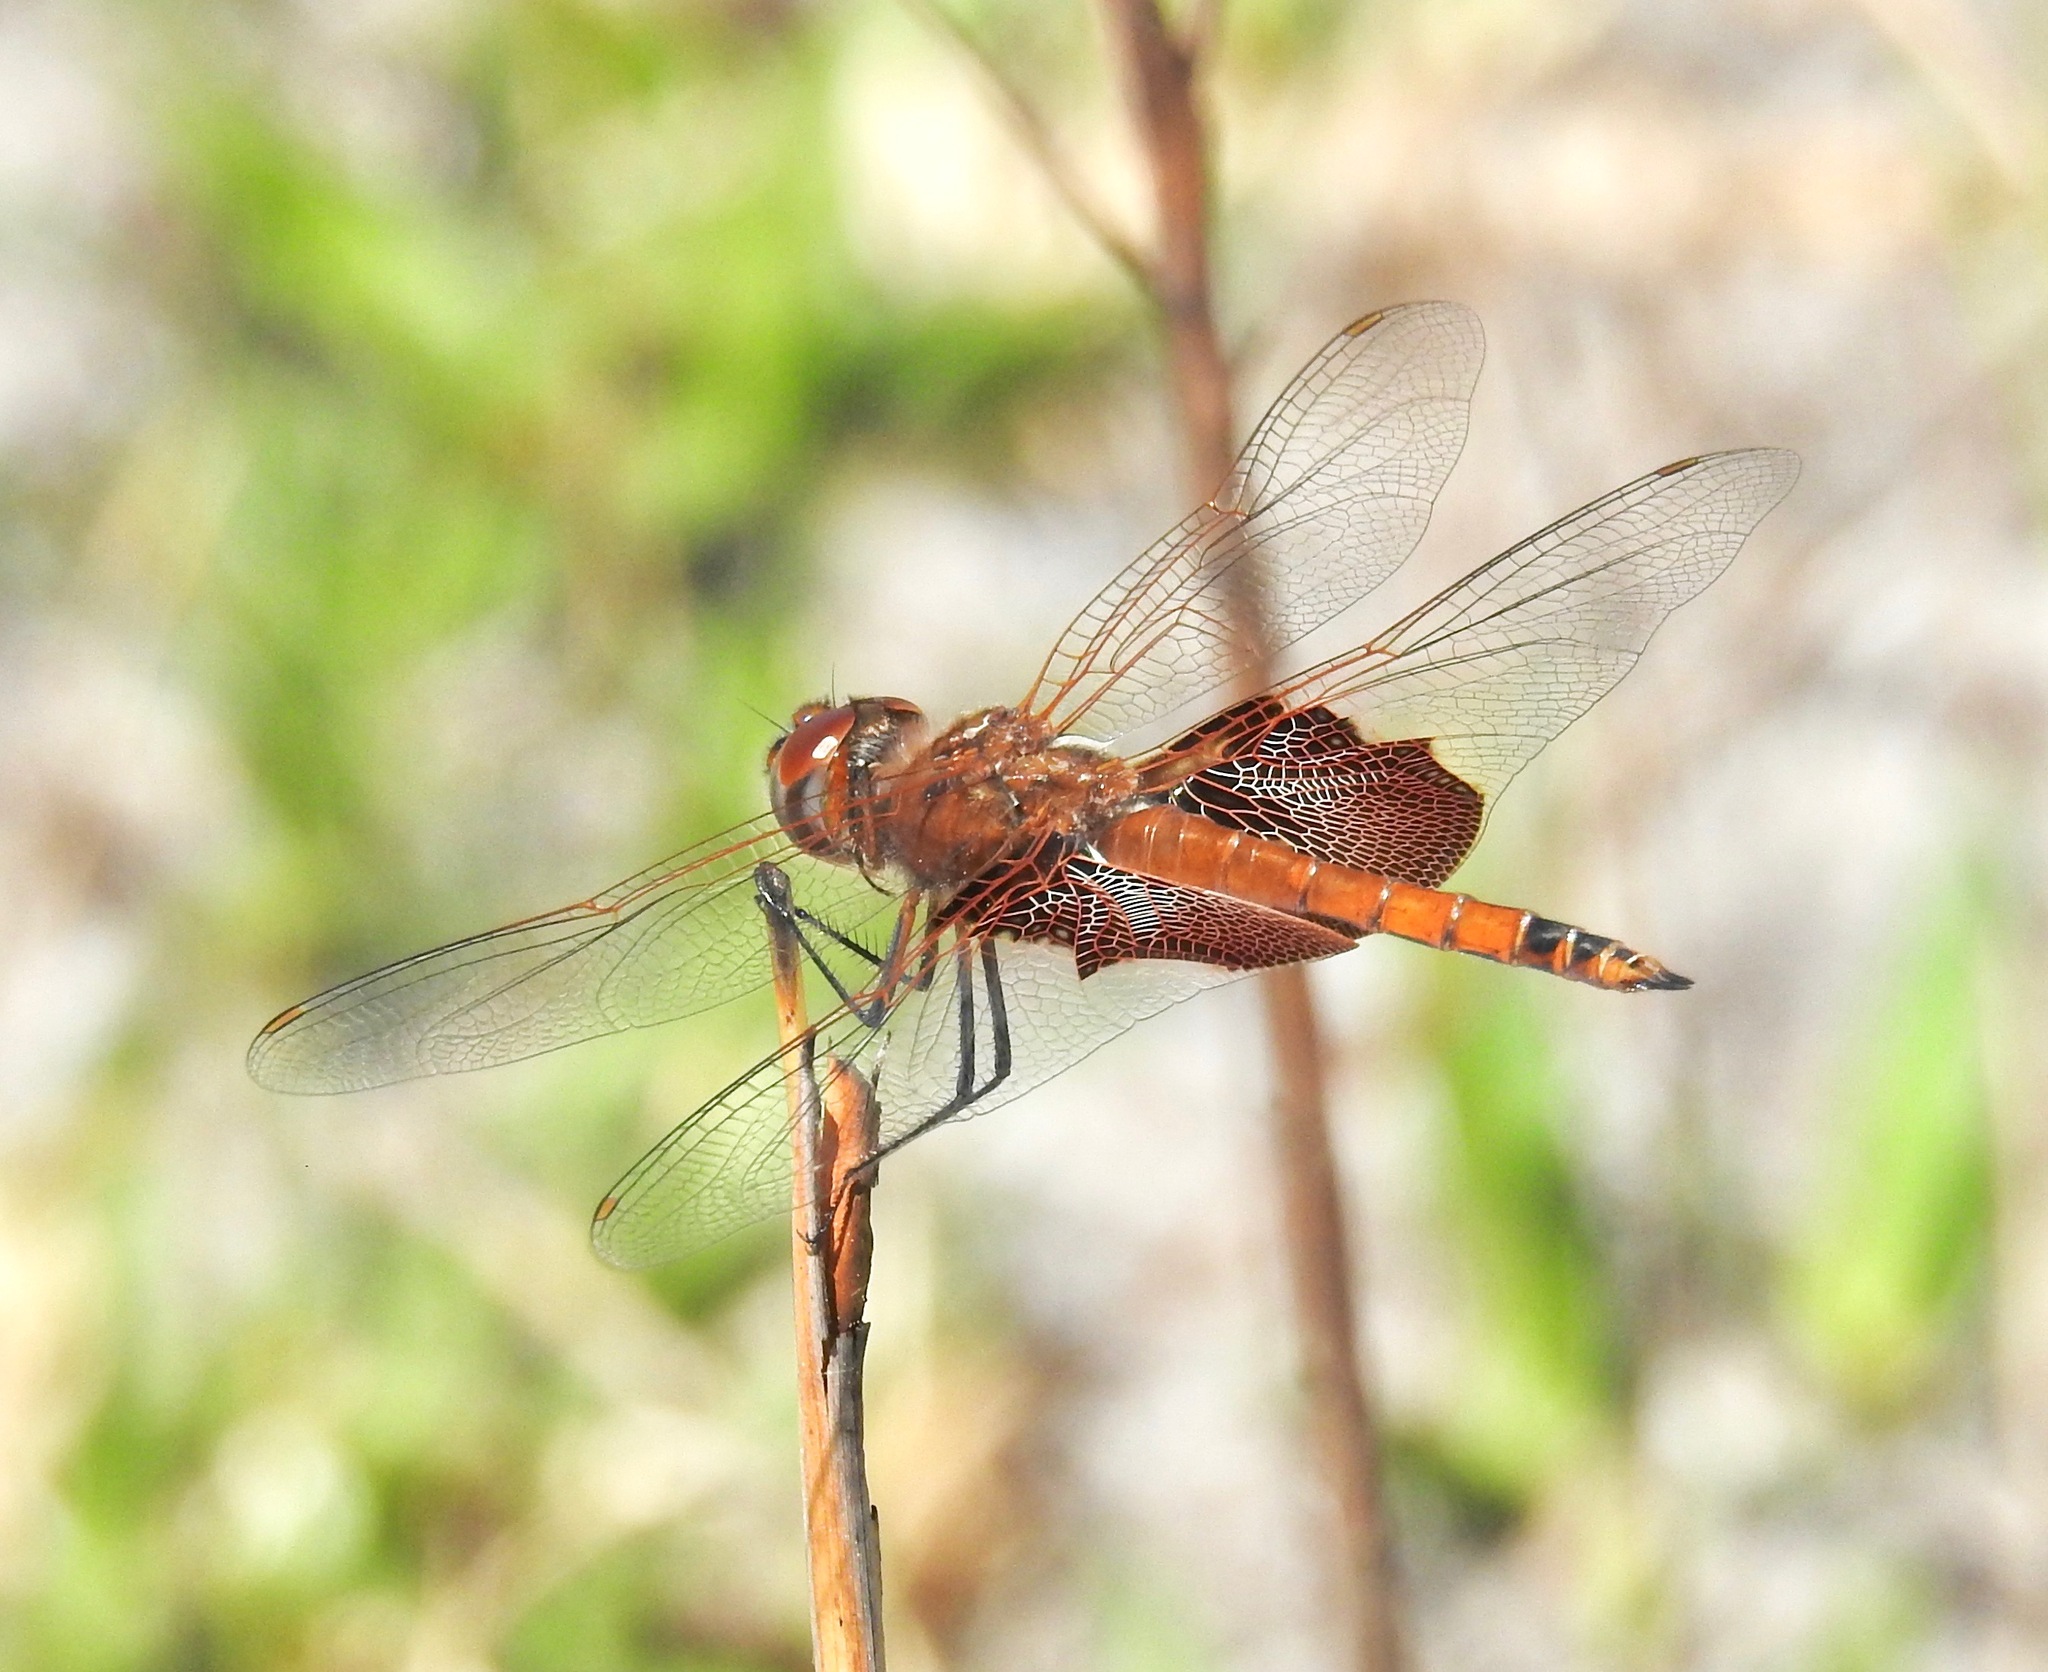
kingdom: Animalia
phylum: Arthropoda
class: Insecta
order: Odonata
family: Libellulidae
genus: Tramea
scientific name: Tramea carolina
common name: Carolina saddlebags
